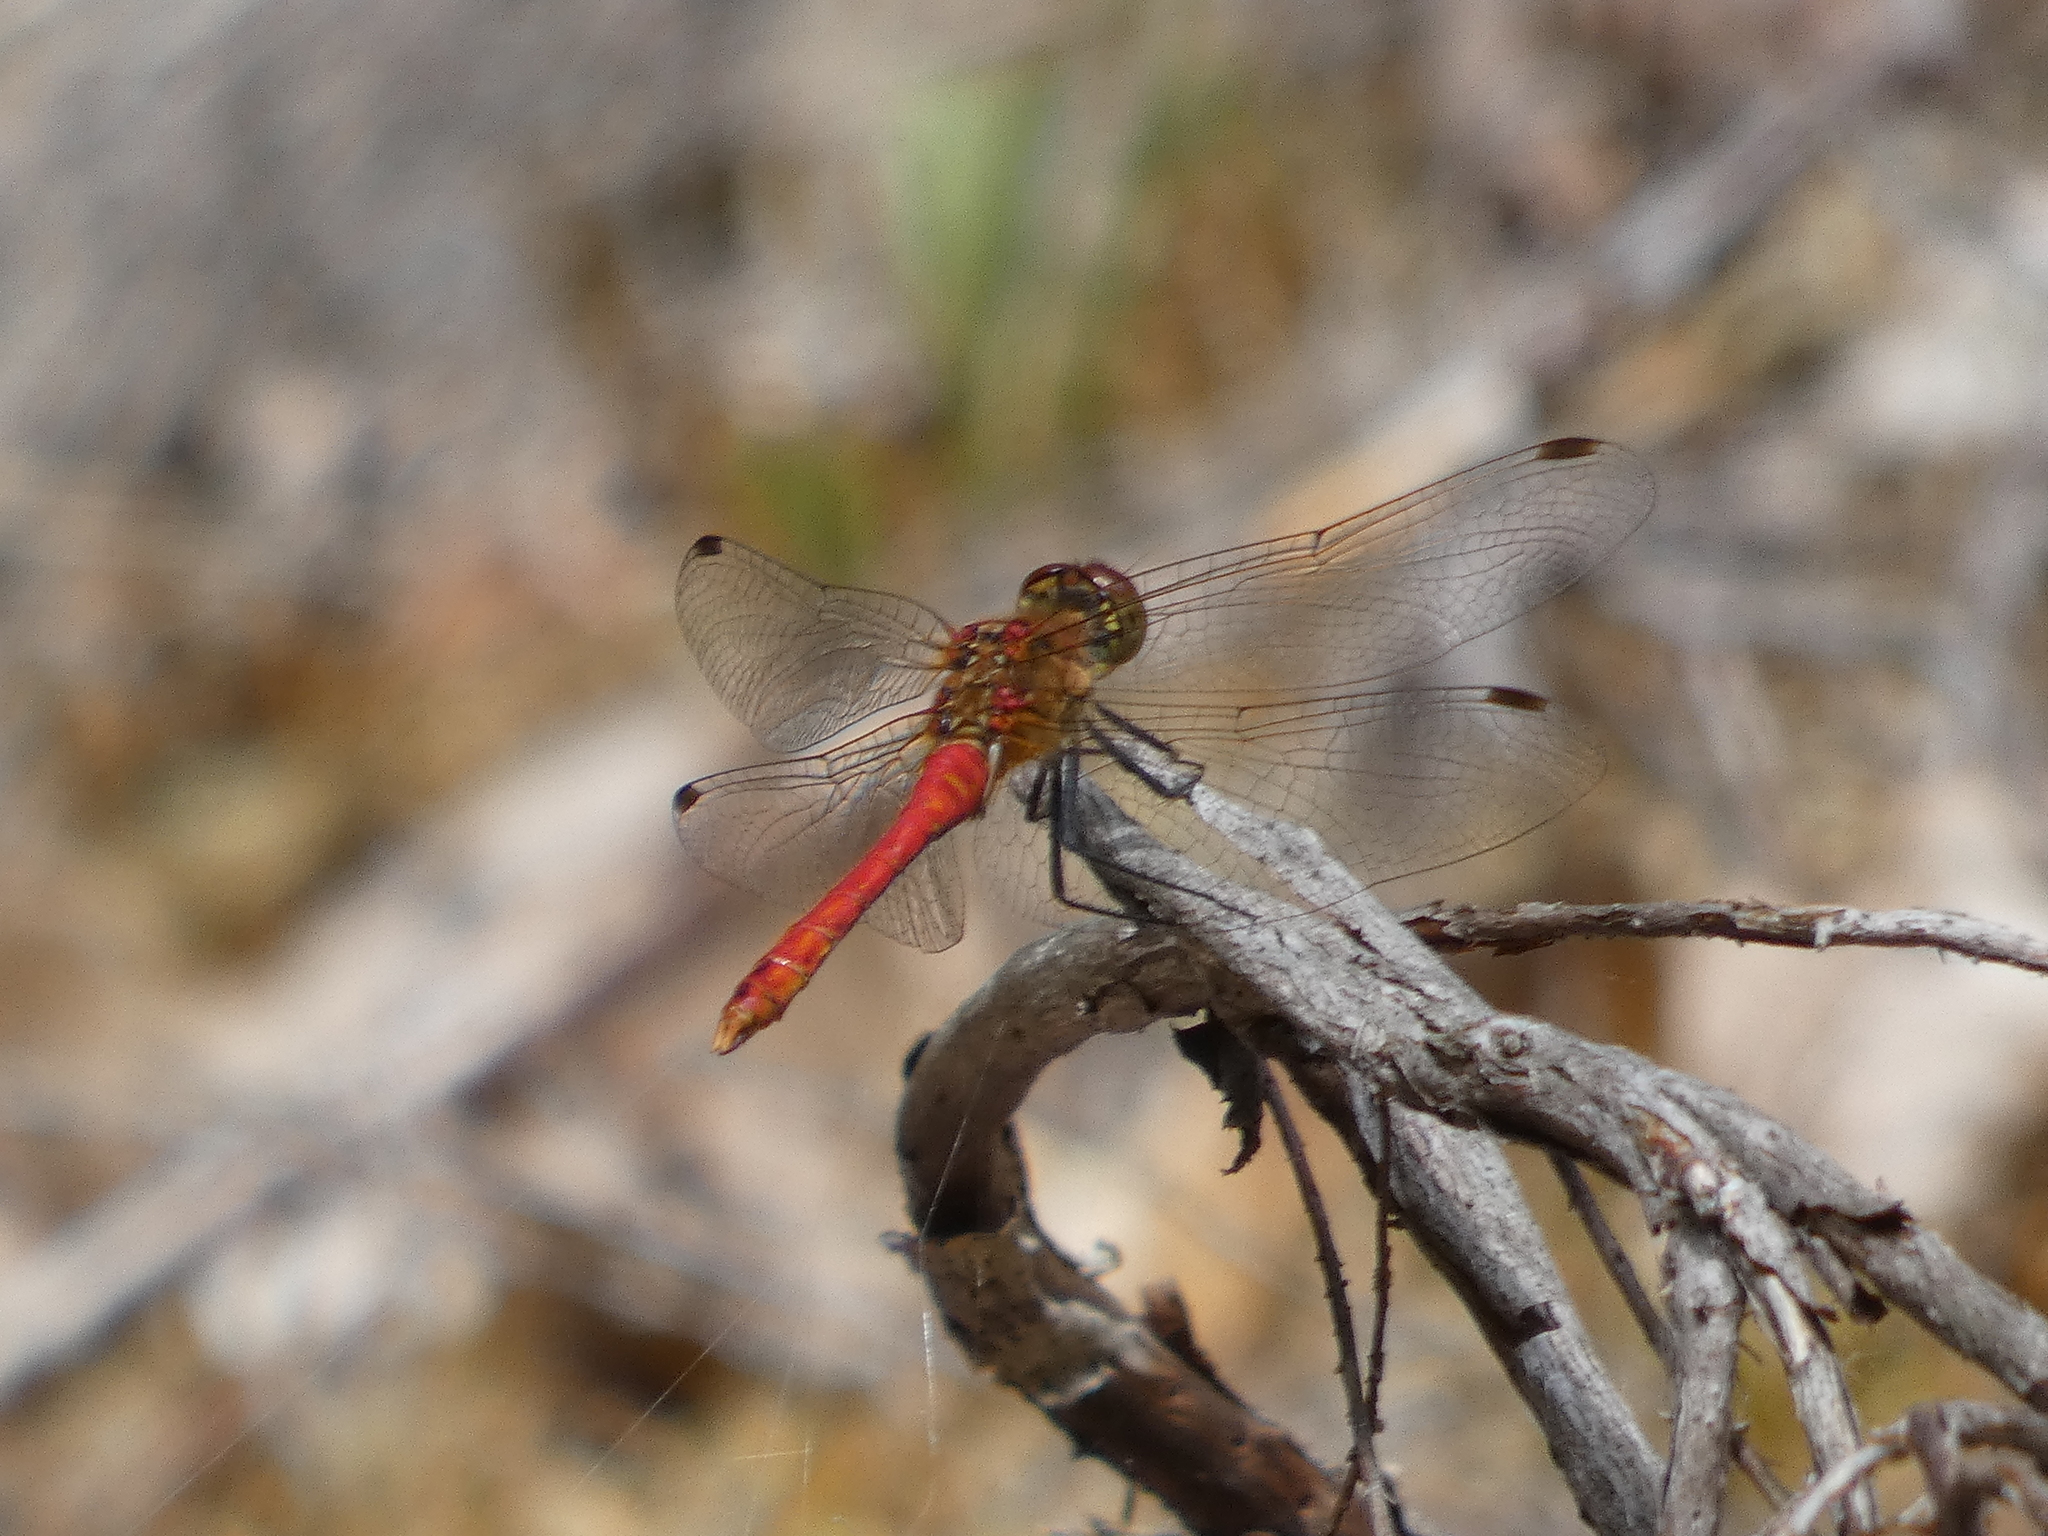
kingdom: Animalia
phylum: Arthropoda
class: Insecta
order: Odonata
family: Libellulidae
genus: Sympetrum
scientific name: Sympetrum sanguineum
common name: Ruddy darter
